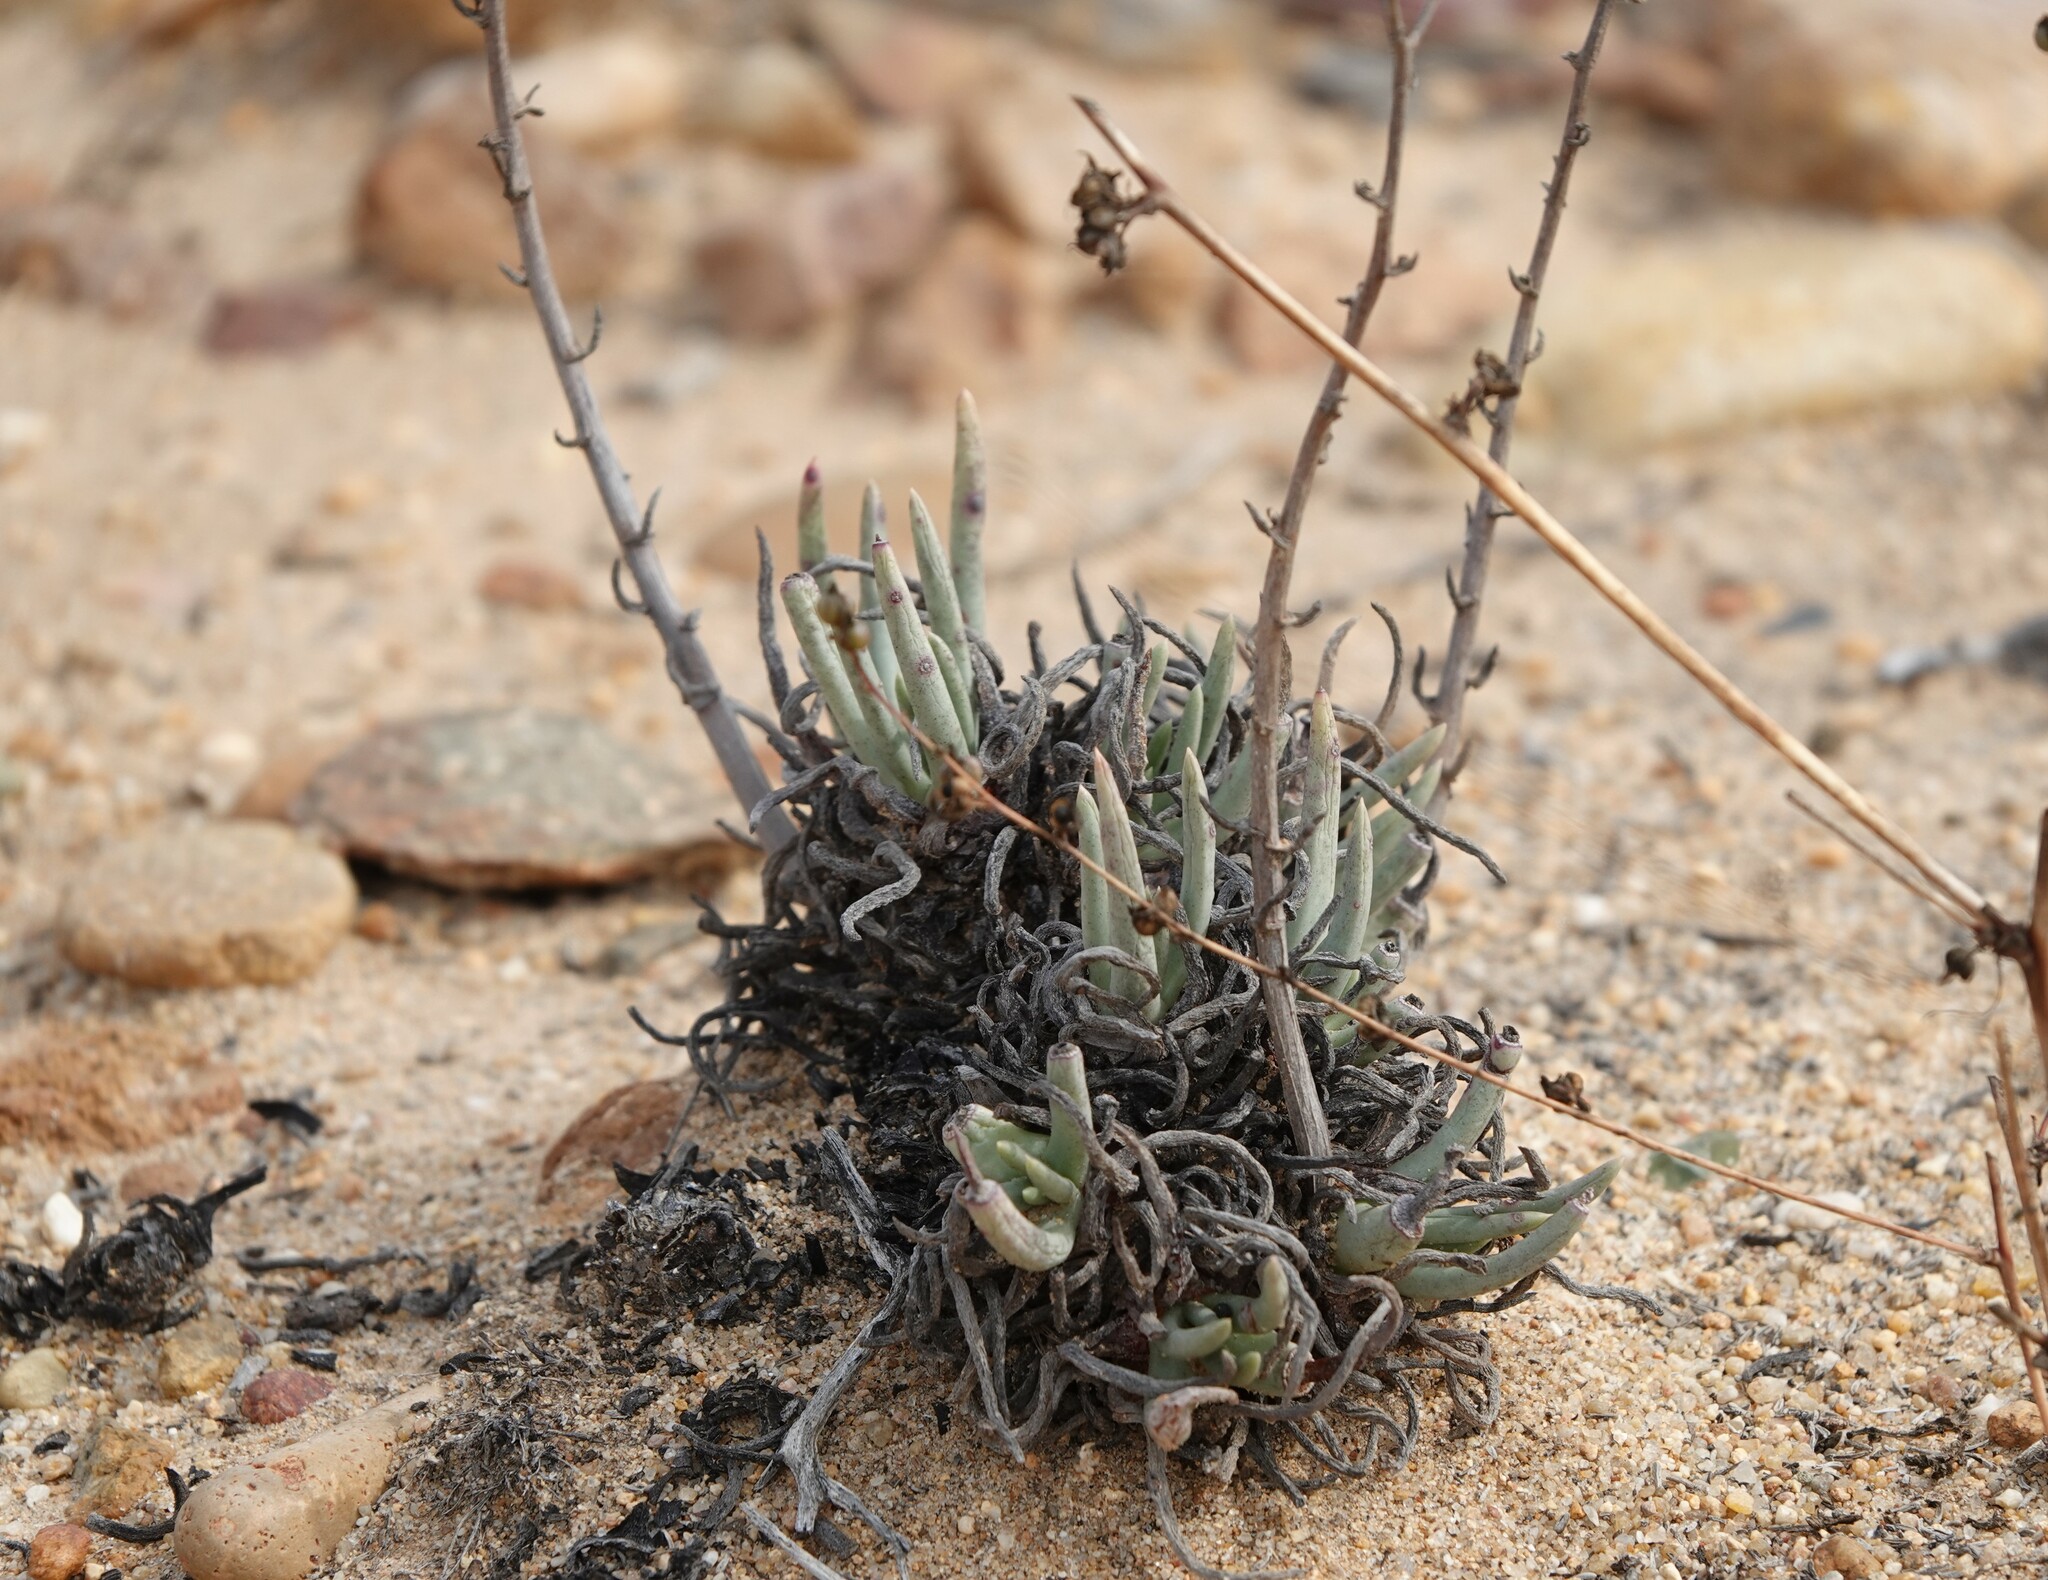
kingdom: Plantae
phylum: Tracheophyta
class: Magnoliopsida
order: Saxifragales
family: Crassulaceae
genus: Dudleya
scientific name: Dudleya edulis
